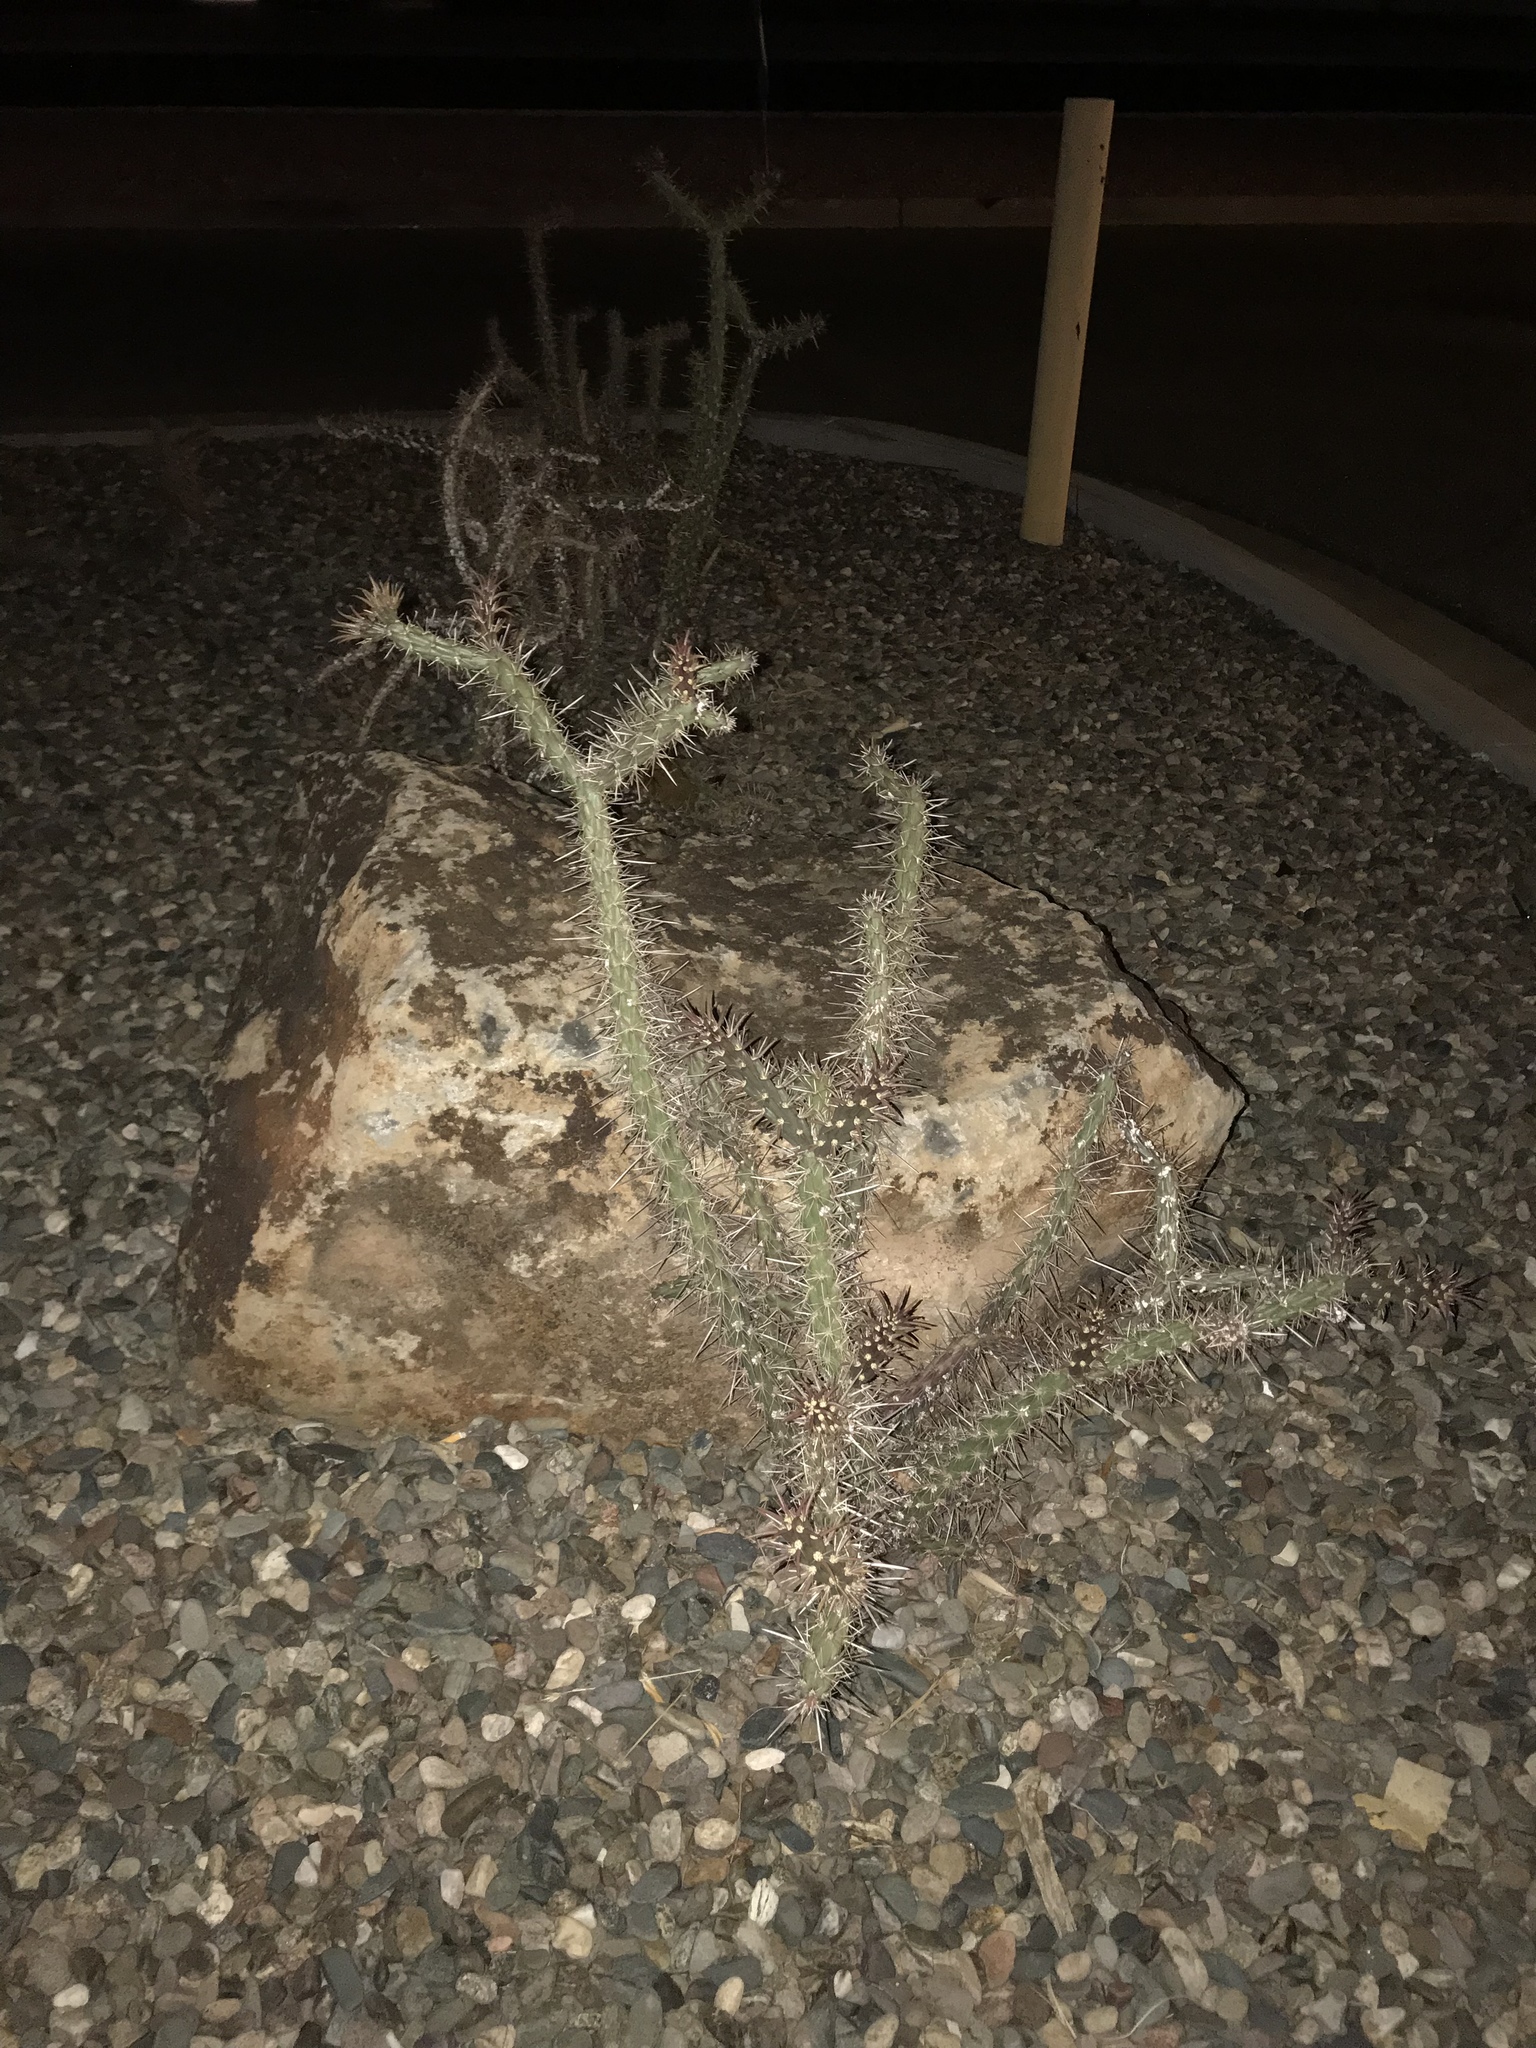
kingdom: Plantae
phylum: Tracheophyta
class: Magnoliopsida
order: Caryophyllales
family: Cactaceae
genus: Cylindropuntia
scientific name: Cylindropuntia acanthocarpa
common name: Buckhorn cholla
